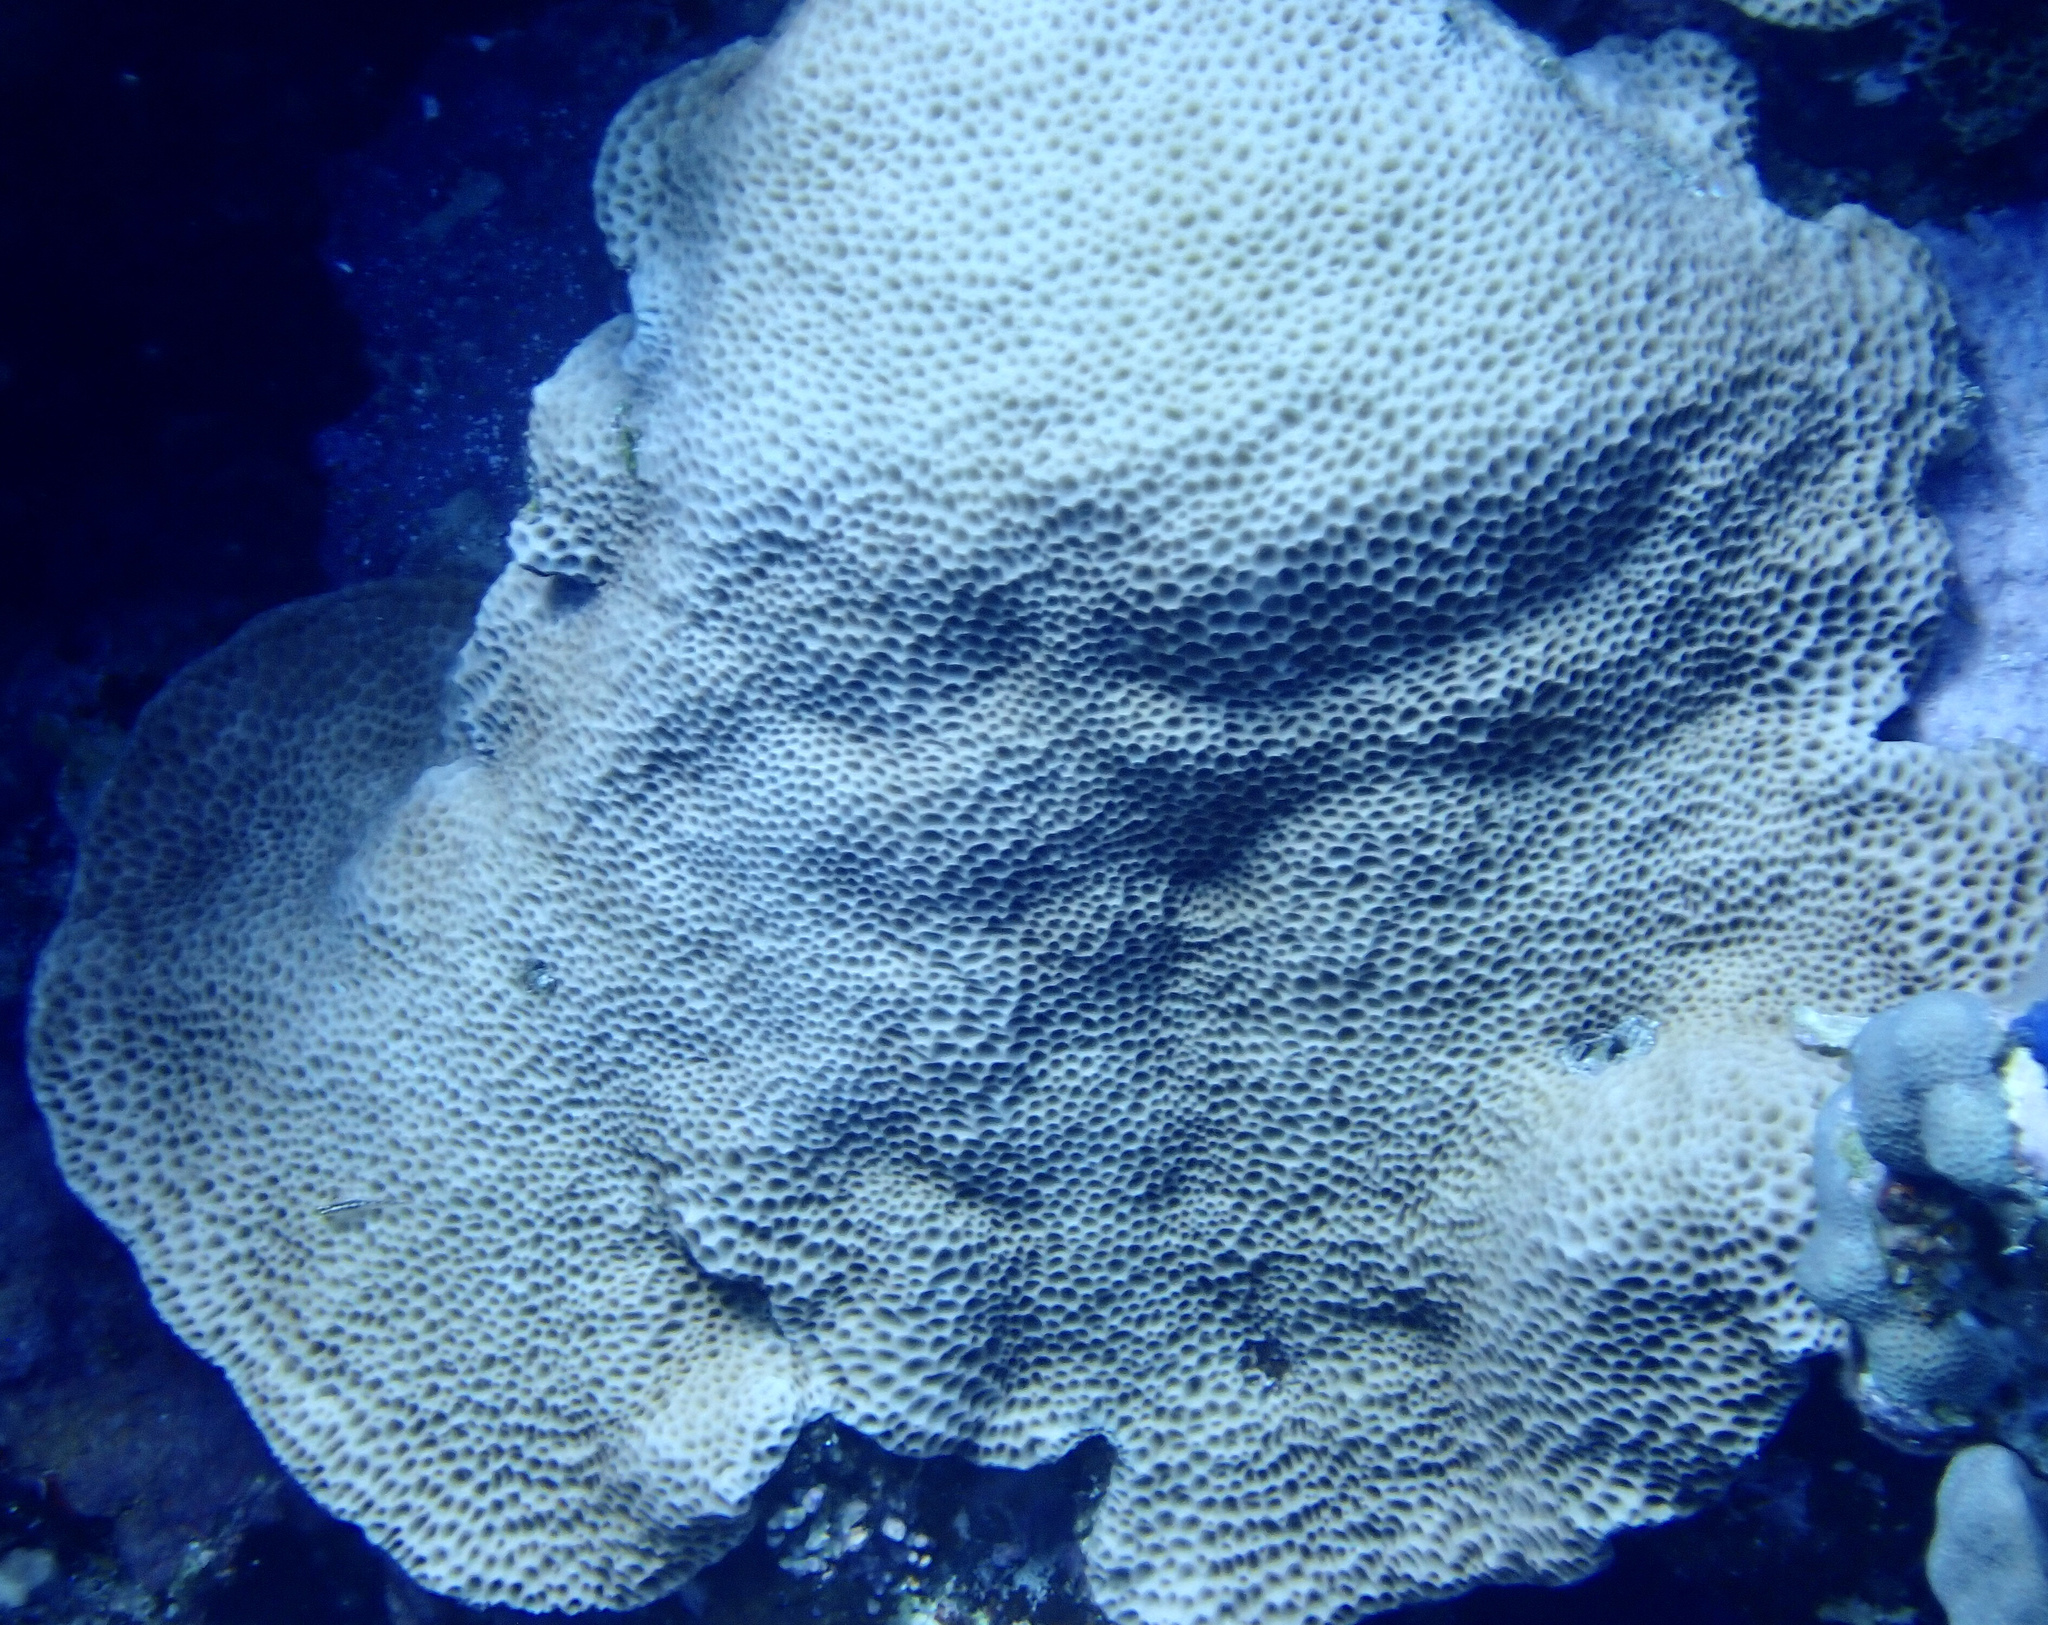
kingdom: Animalia
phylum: Cnidaria
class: Anthozoa
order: Scleractinia
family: Agariciidae
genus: Gardineroseris
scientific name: Gardineroseris planulata
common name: Gardiner's coral
